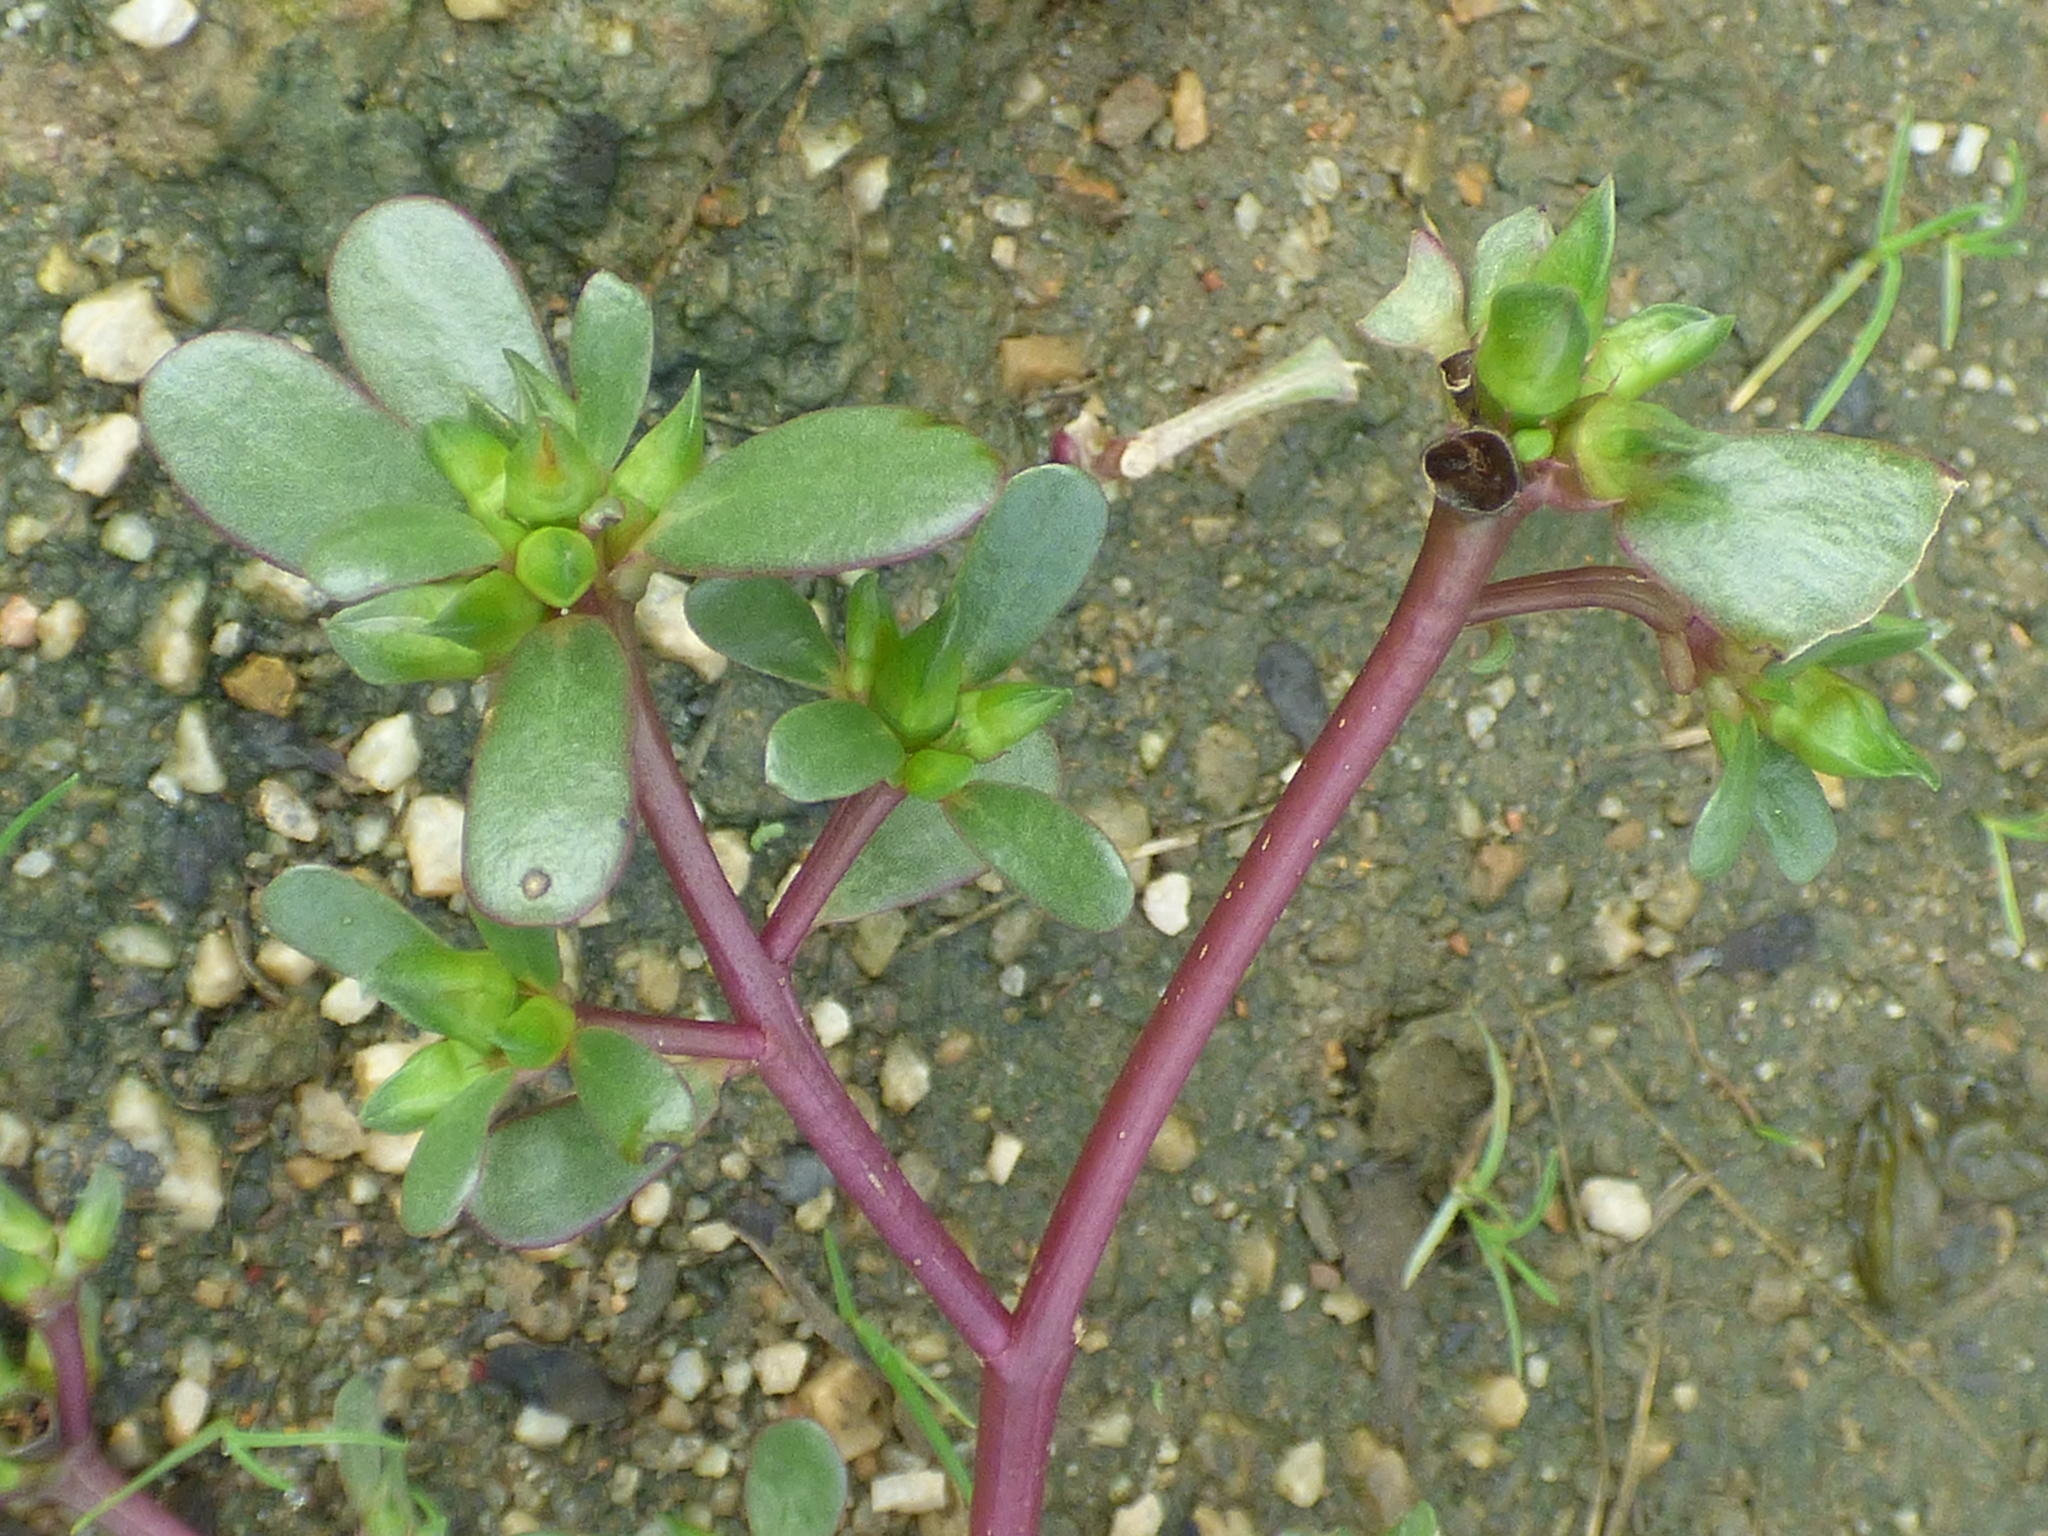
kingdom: Plantae
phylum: Tracheophyta
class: Magnoliopsida
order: Caryophyllales
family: Portulacaceae
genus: Portulaca
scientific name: Portulaca oleracea
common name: Common purslane
